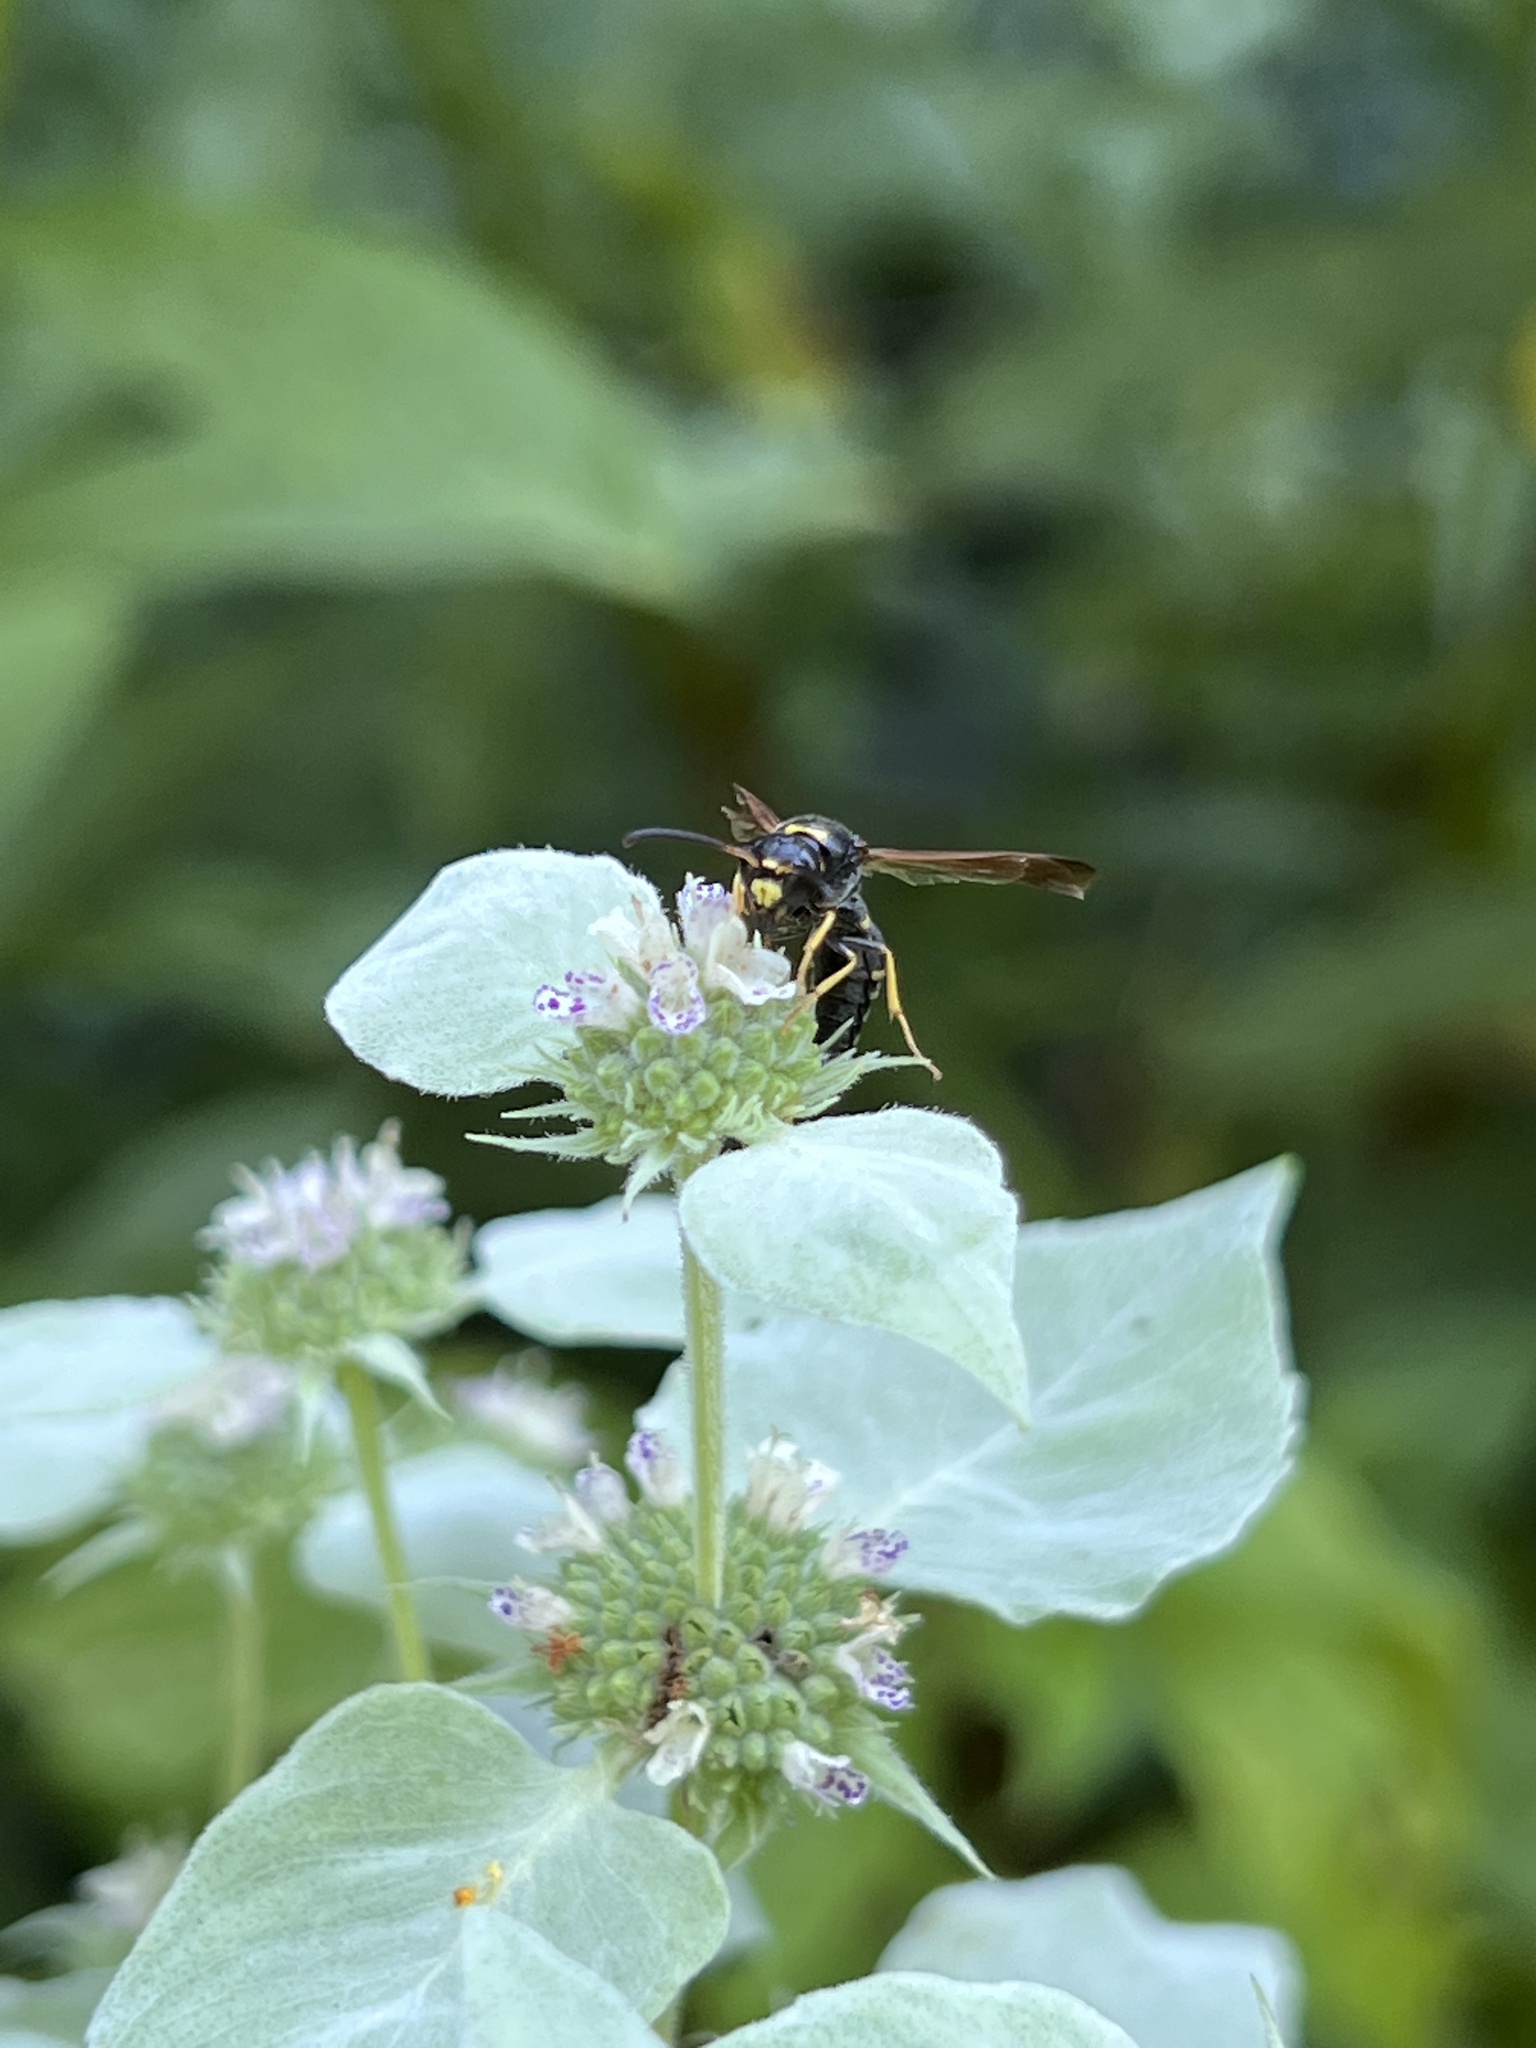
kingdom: Animalia
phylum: Arthropoda
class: Insecta
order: Hymenoptera
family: Eumenidae
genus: Parazumia
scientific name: Parazumia symmorpha
